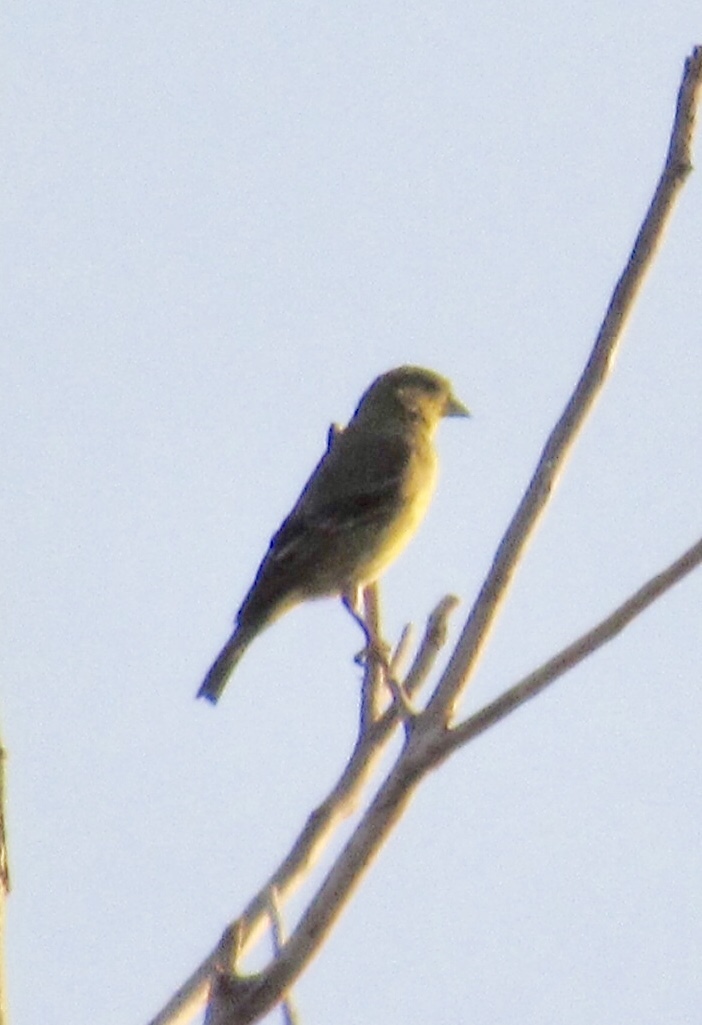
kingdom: Animalia
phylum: Chordata
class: Aves
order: Passeriformes
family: Fringillidae
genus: Spinus
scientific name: Spinus psaltria
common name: Lesser goldfinch
